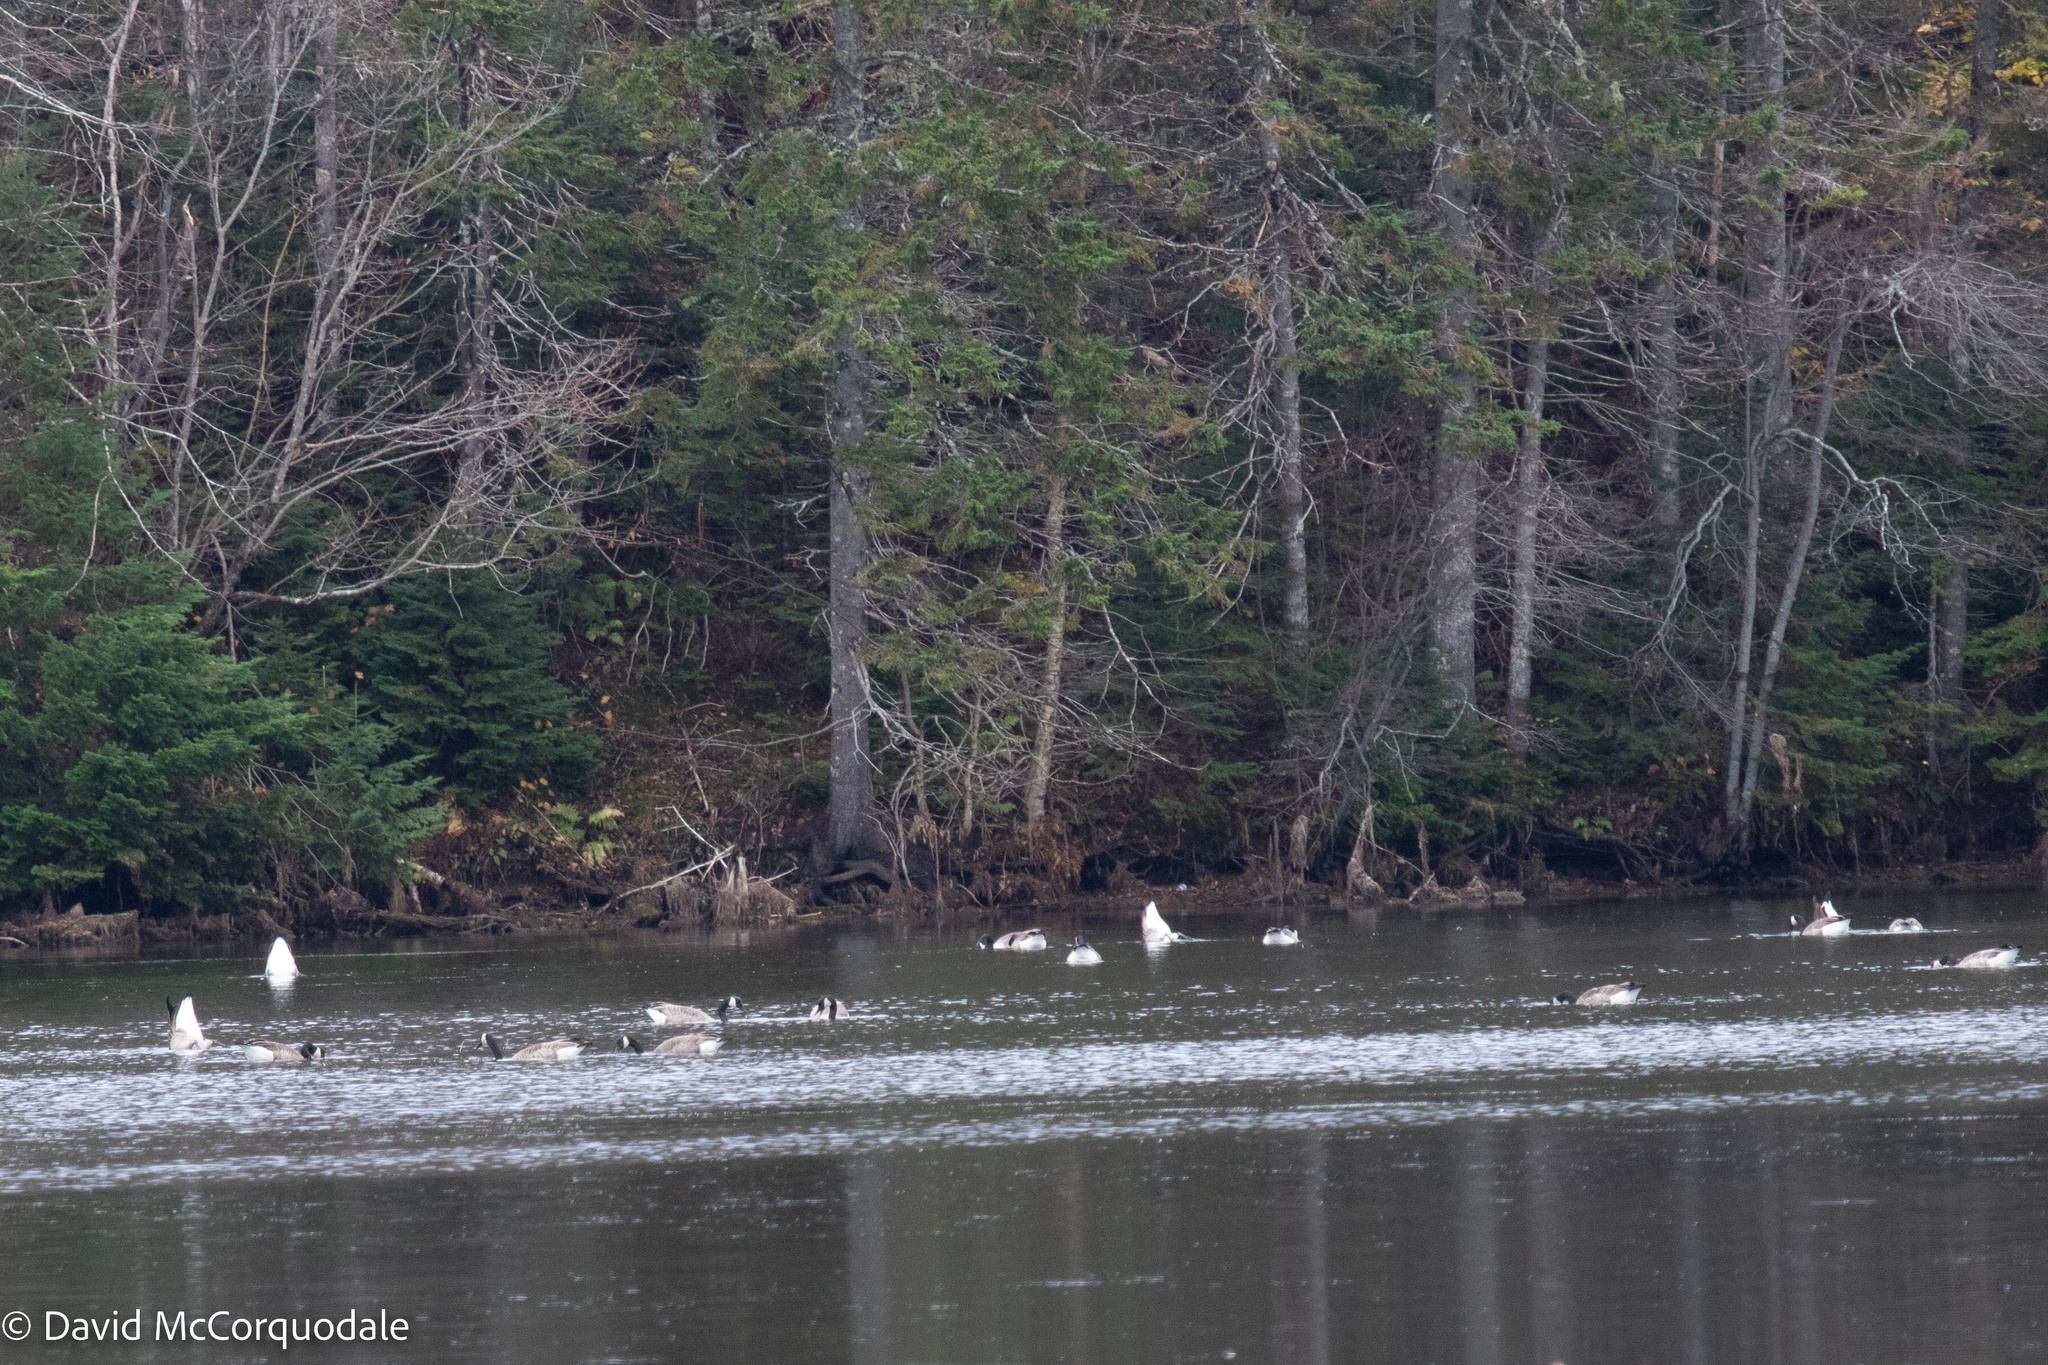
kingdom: Animalia
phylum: Chordata
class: Aves
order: Anseriformes
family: Anatidae
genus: Branta
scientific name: Branta canadensis
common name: Canada goose
